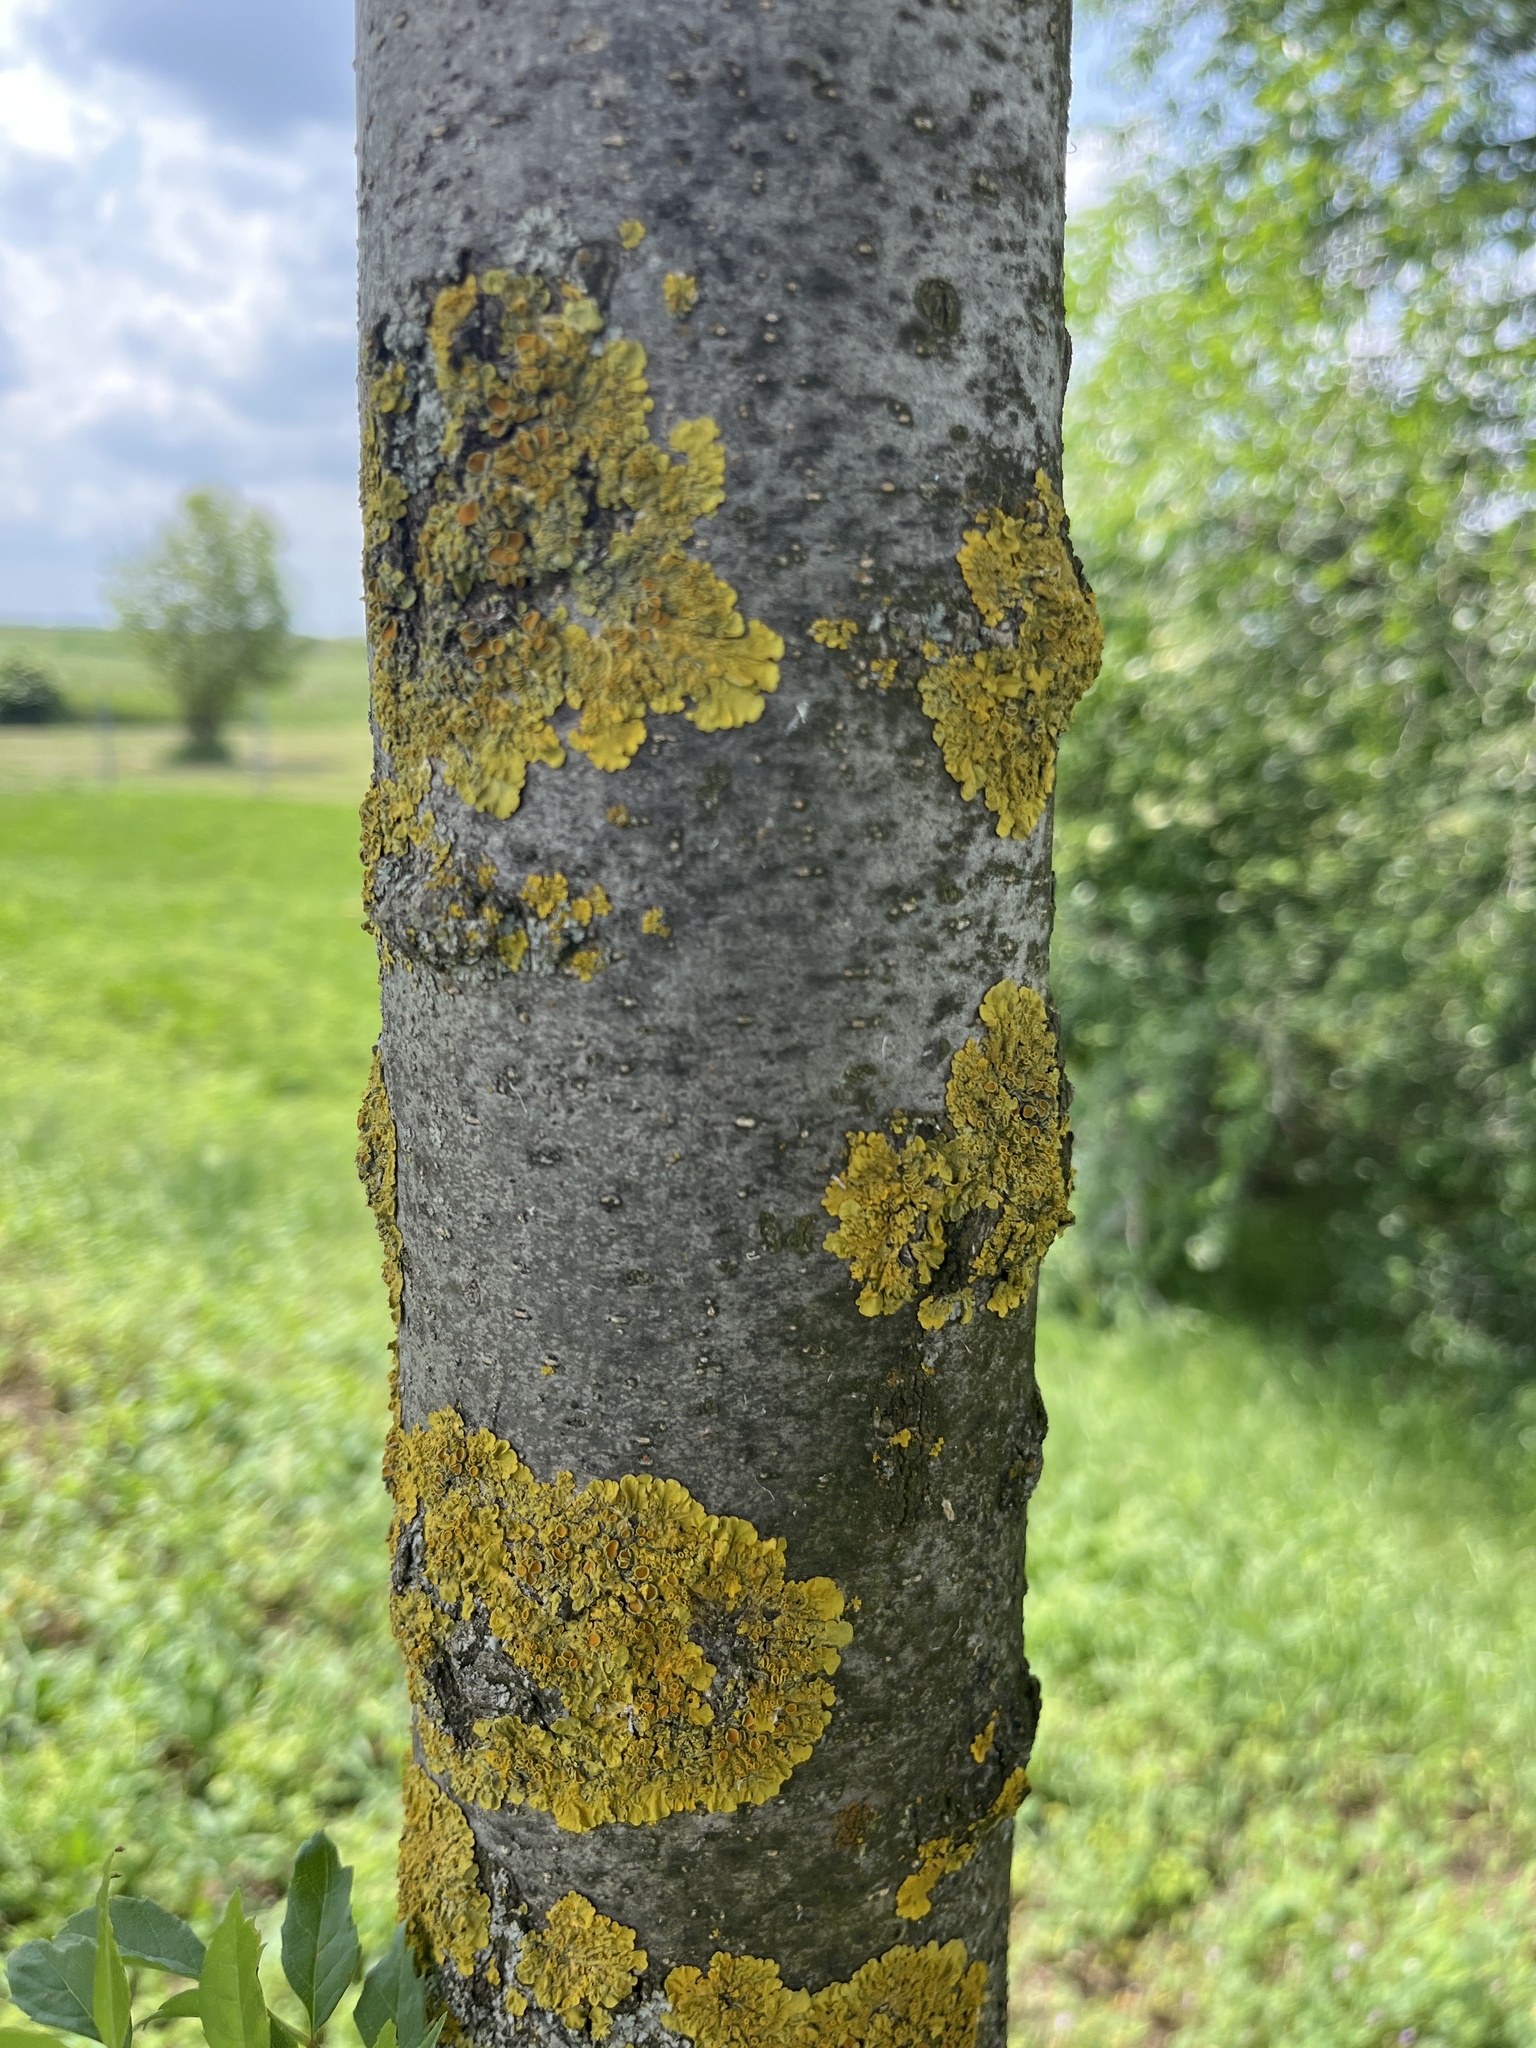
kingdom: Fungi
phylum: Ascomycota
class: Lecanoromycetes
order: Teloschistales
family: Teloschistaceae
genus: Xanthoria
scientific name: Xanthoria parietina
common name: Common orange lichen
